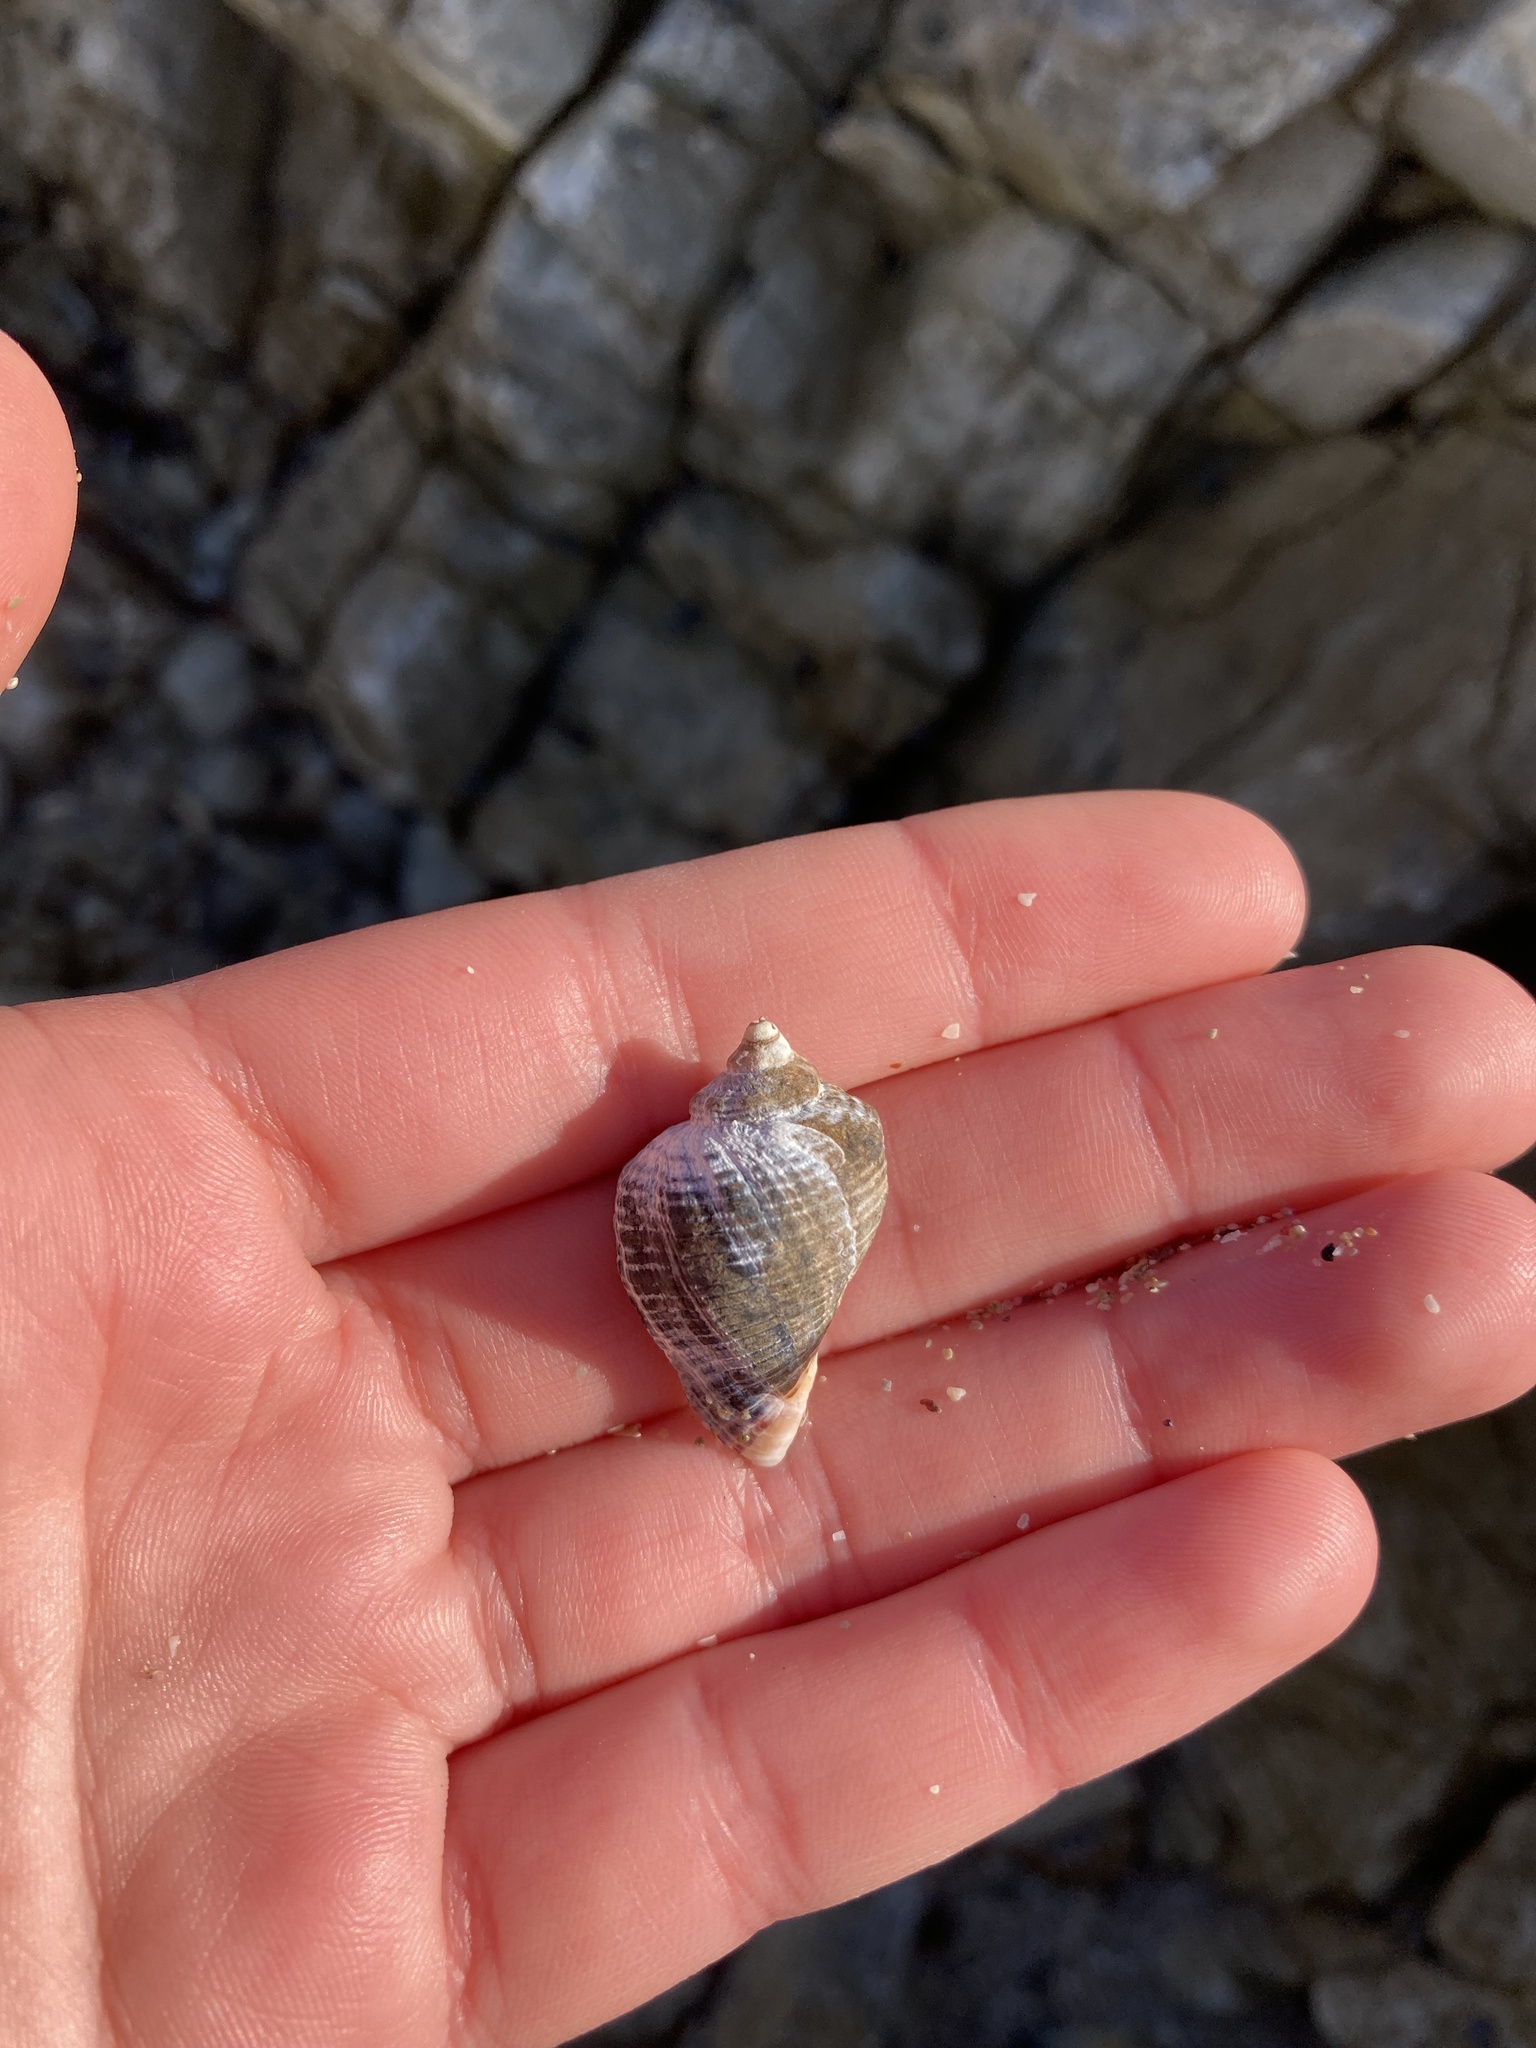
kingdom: Animalia
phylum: Mollusca
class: Gastropoda
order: Neogastropoda
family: Muricidae
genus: Haustrum
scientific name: Haustrum haustorium
